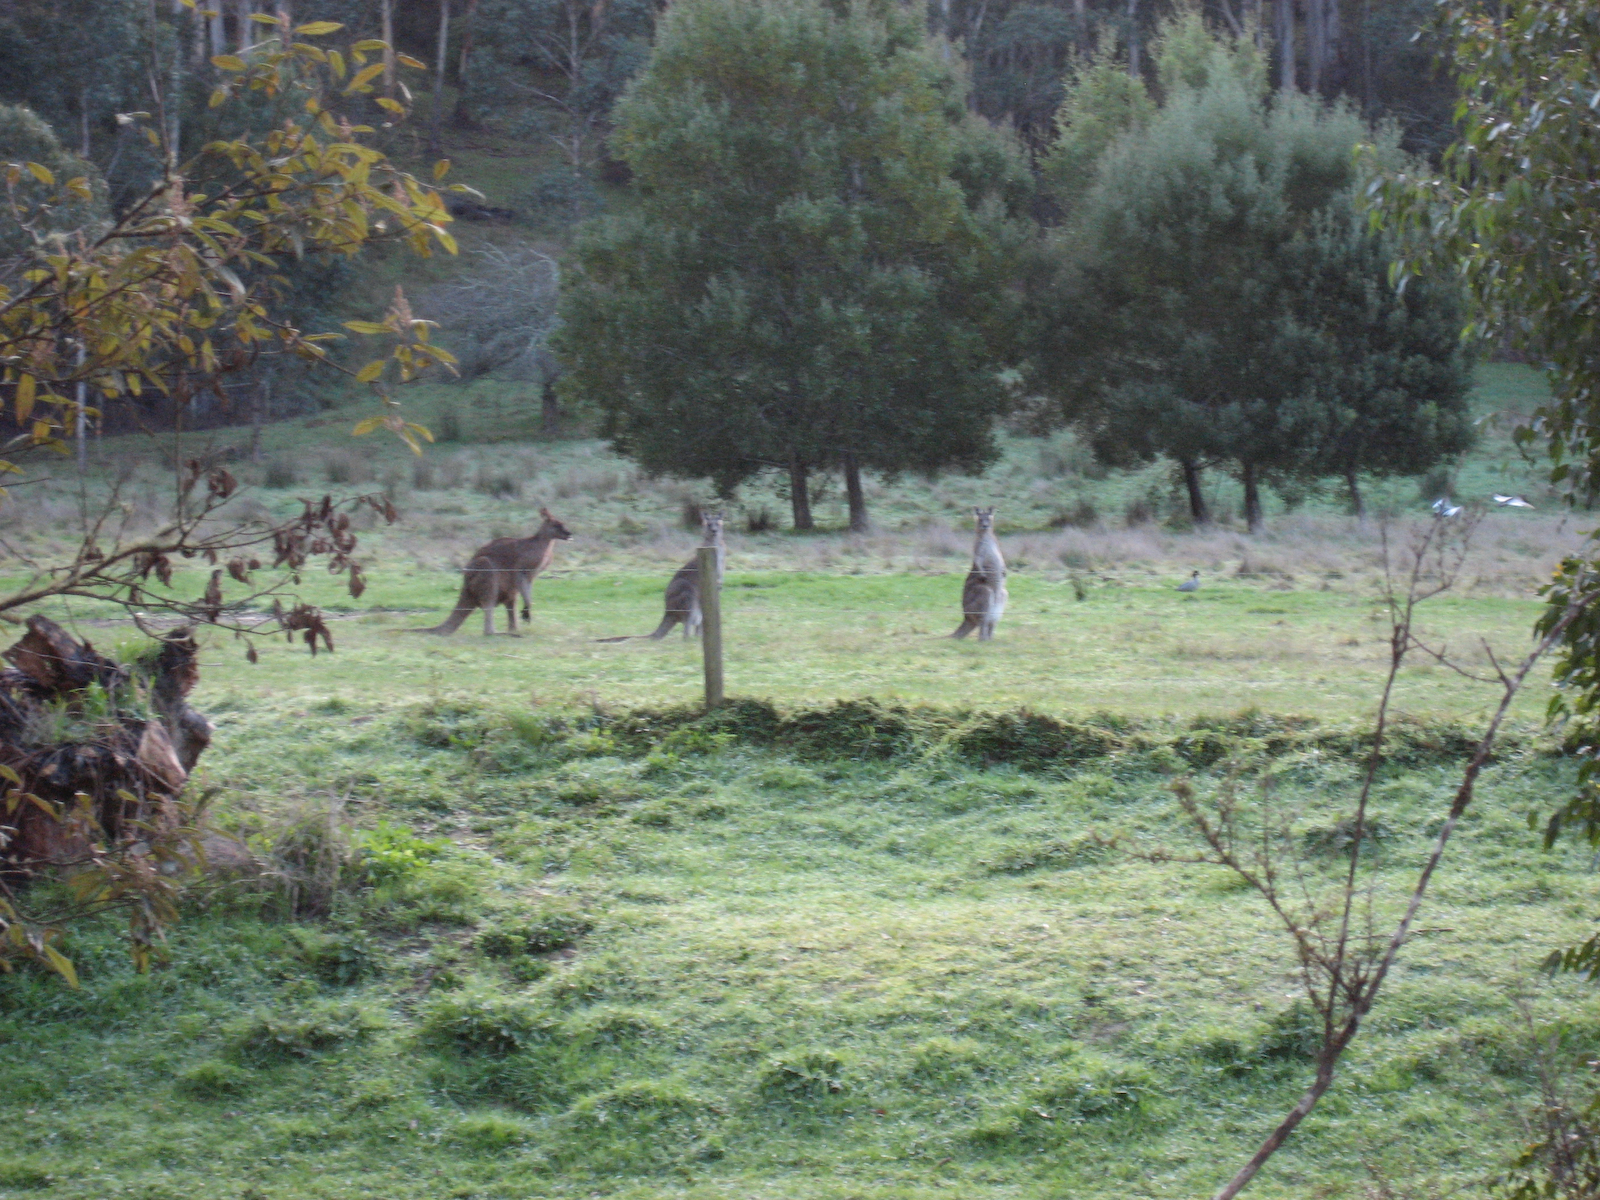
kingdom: Animalia
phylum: Chordata
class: Mammalia
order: Diprotodontia
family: Macropodidae
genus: Macropus
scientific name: Macropus giganteus
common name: Eastern grey kangaroo
